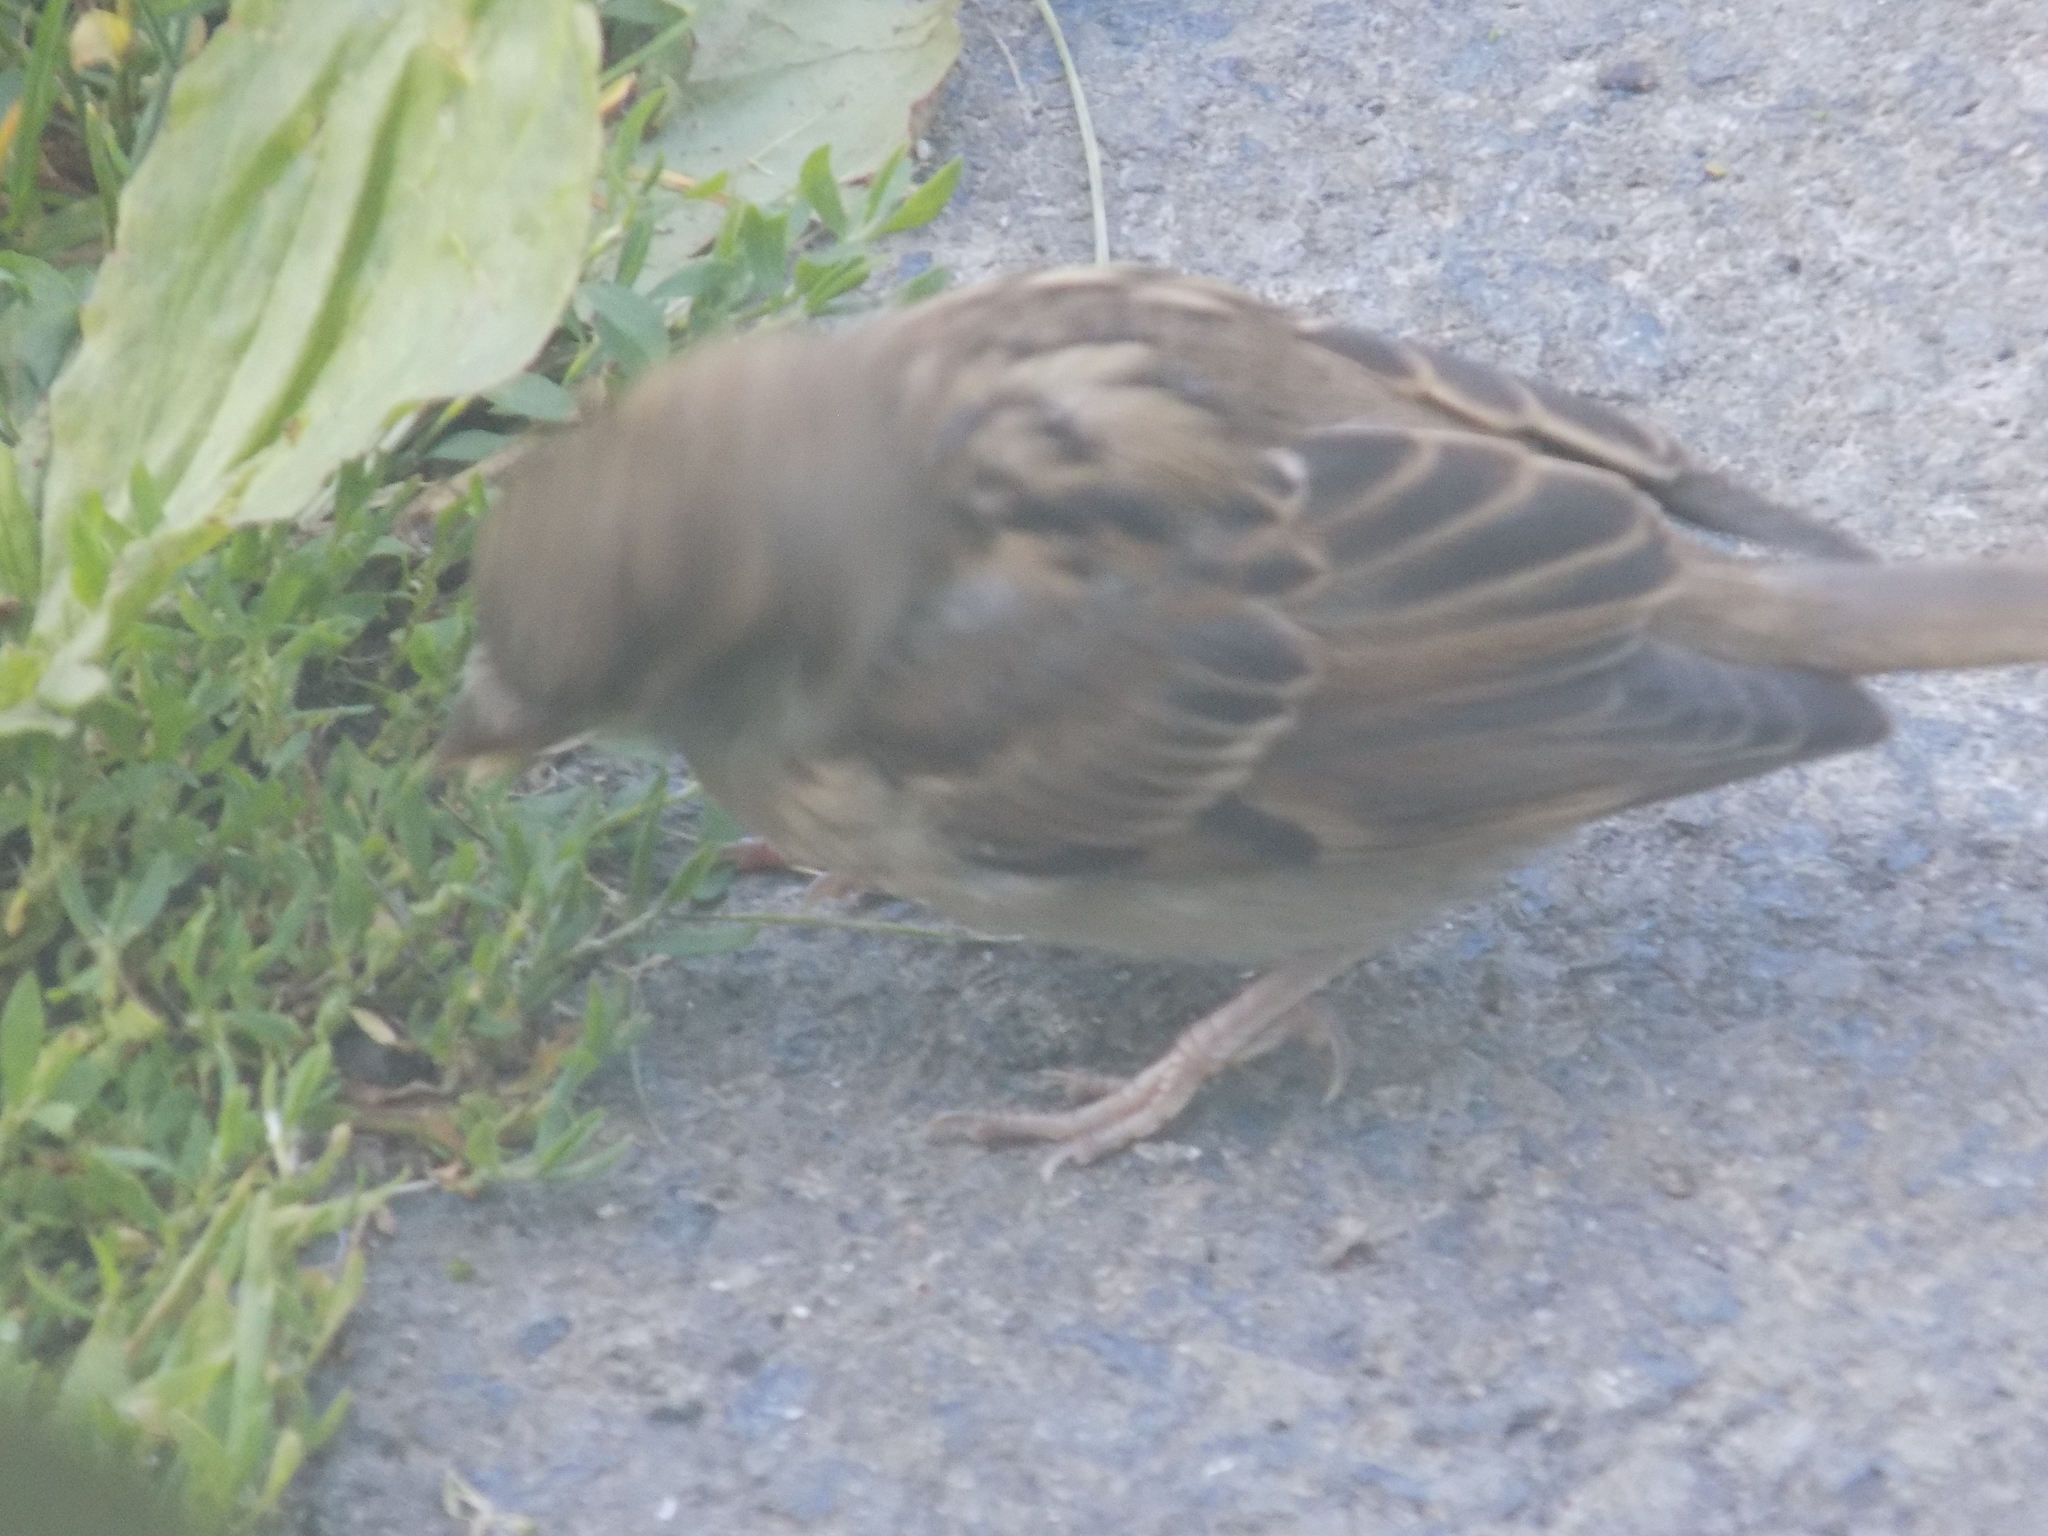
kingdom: Animalia
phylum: Chordata
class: Aves
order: Passeriformes
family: Passeridae
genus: Passer
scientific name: Passer domesticus
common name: House sparrow
